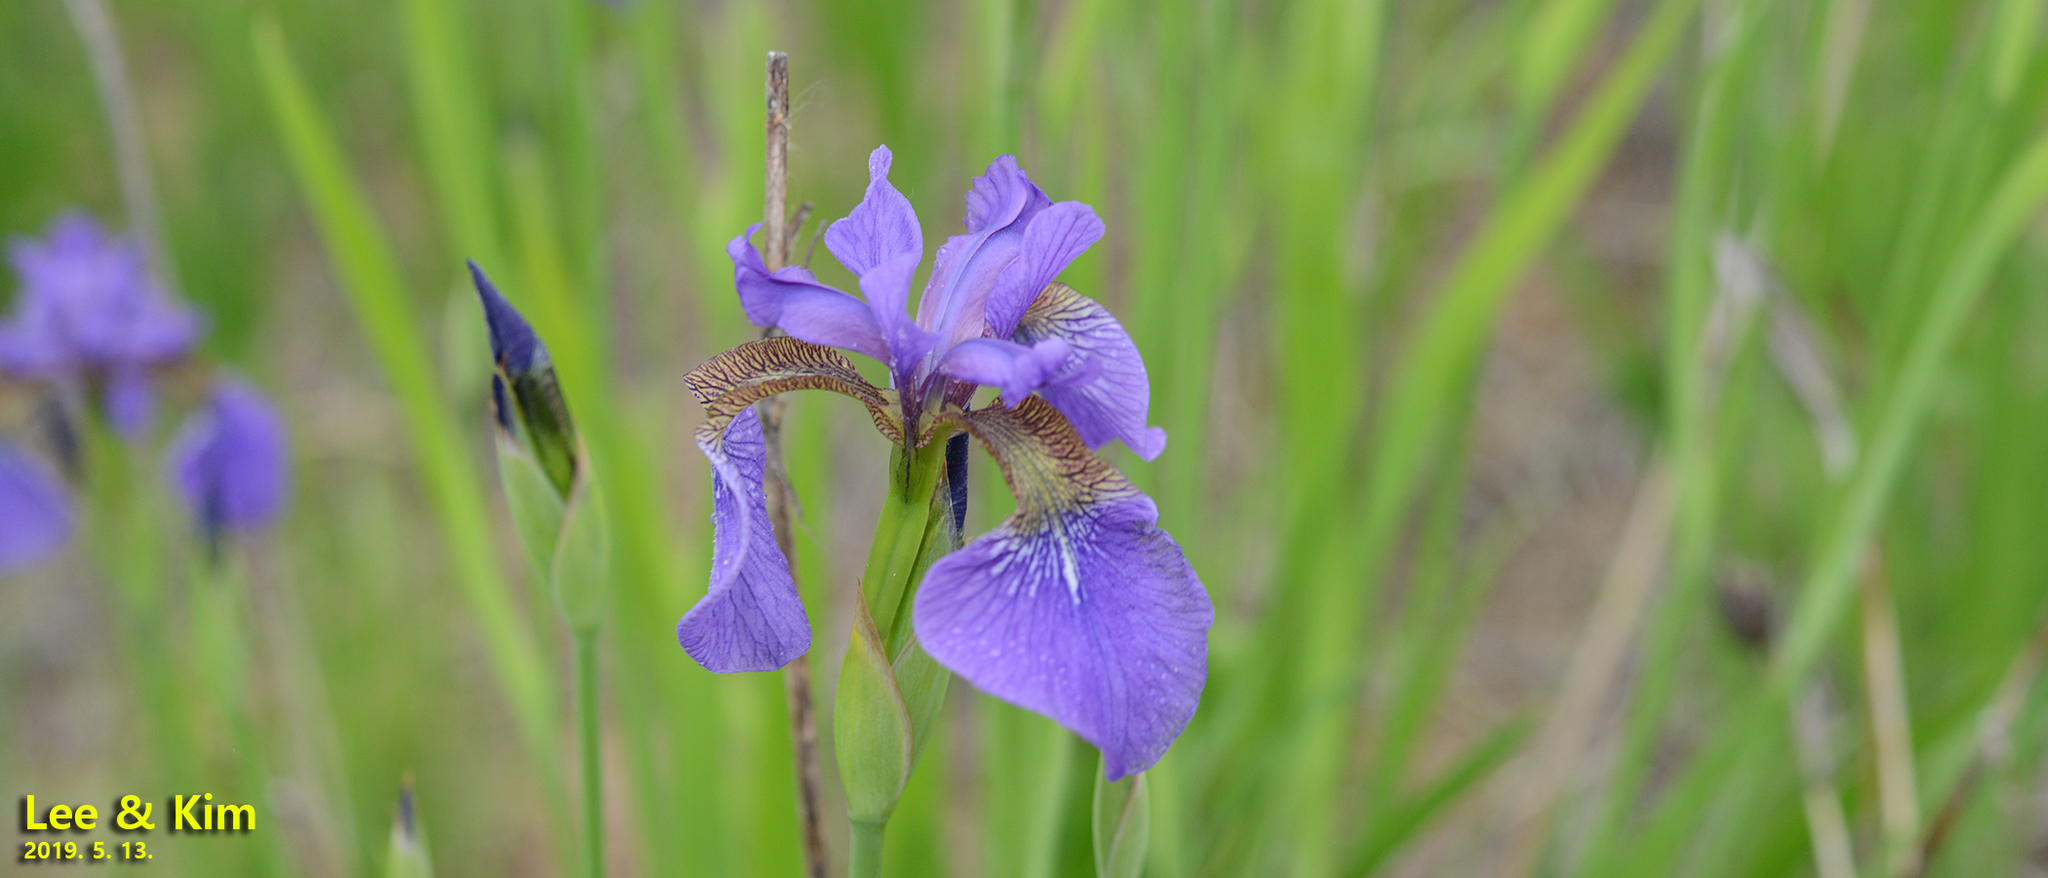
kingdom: Plantae
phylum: Tracheophyta
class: Liliopsida
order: Asparagales
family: Iridaceae
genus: Iris
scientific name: Iris sanguinea
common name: Blood iris
